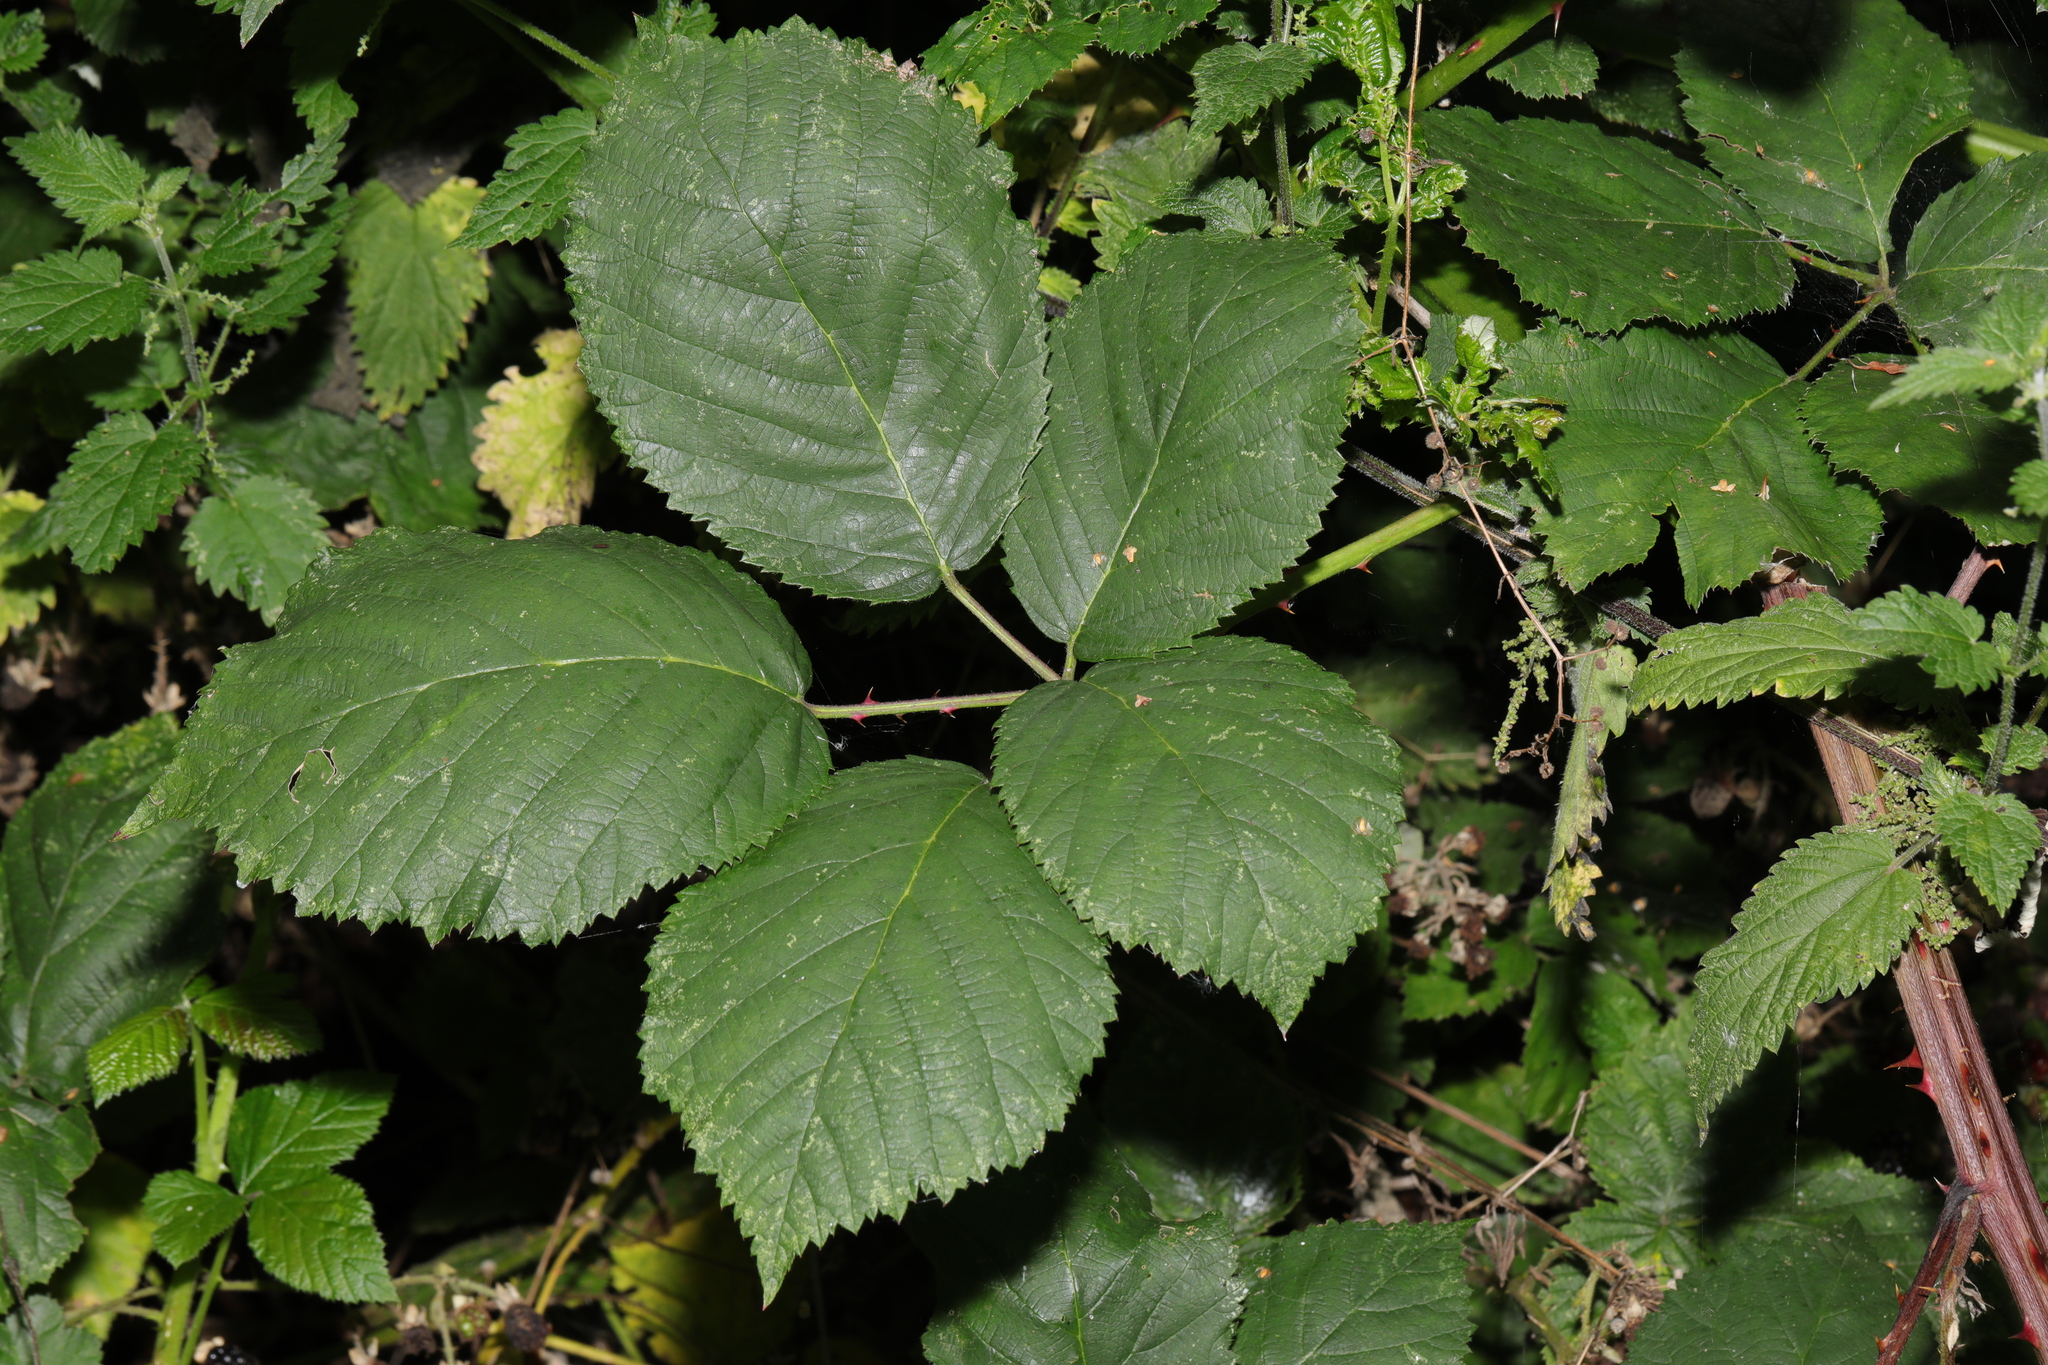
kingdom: Plantae
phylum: Tracheophyta
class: Magnoliopsida
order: Rosales
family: Rosaceae
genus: Rubus
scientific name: Rubus armeniacus
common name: Himalayan blackberry
